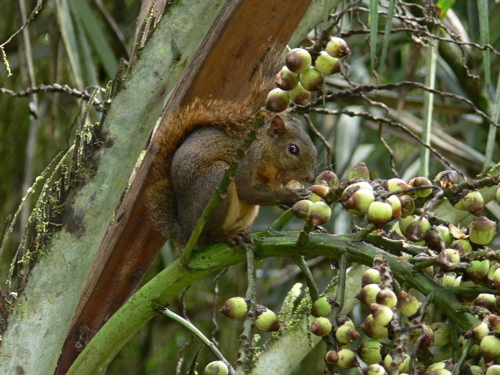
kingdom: Animalia
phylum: Chordata
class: Mammalia
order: Rodentia
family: Sciuridae
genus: Sciurus
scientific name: Sciurus granatensis
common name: Red-tailed squirrel
